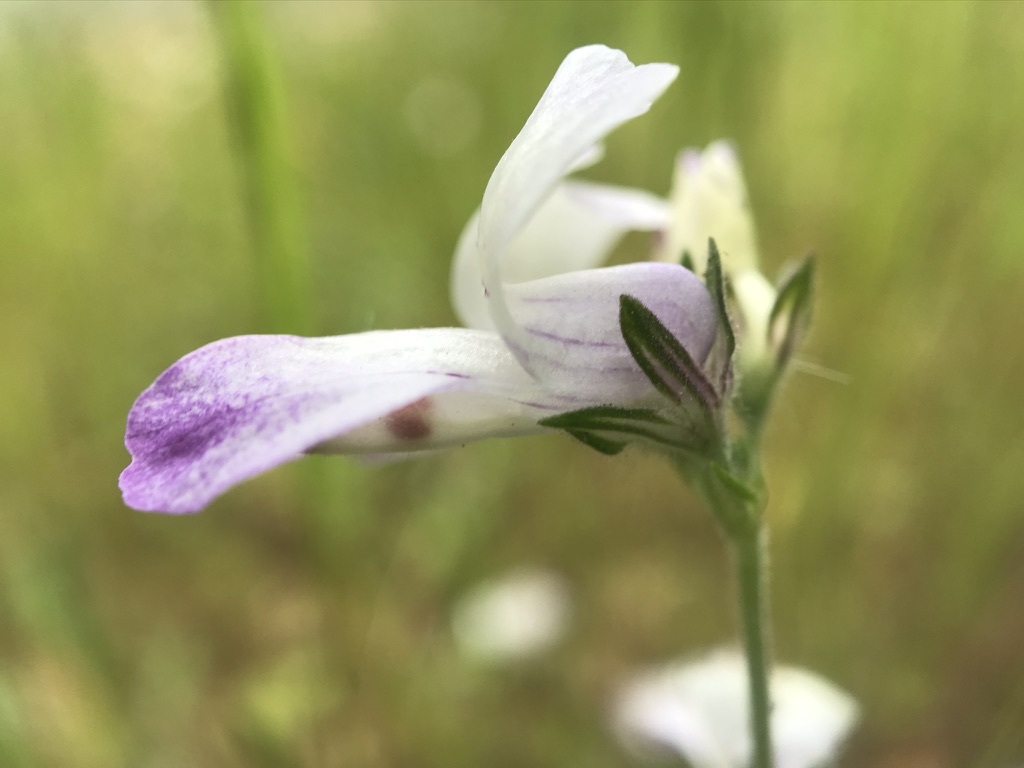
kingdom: Plantae
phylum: Tracheophyta
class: Magnoliopsida
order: Lamiales
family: Plantaginaceae
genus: Collinsia
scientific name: Collinsia heterophylla
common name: Chinese-houses
